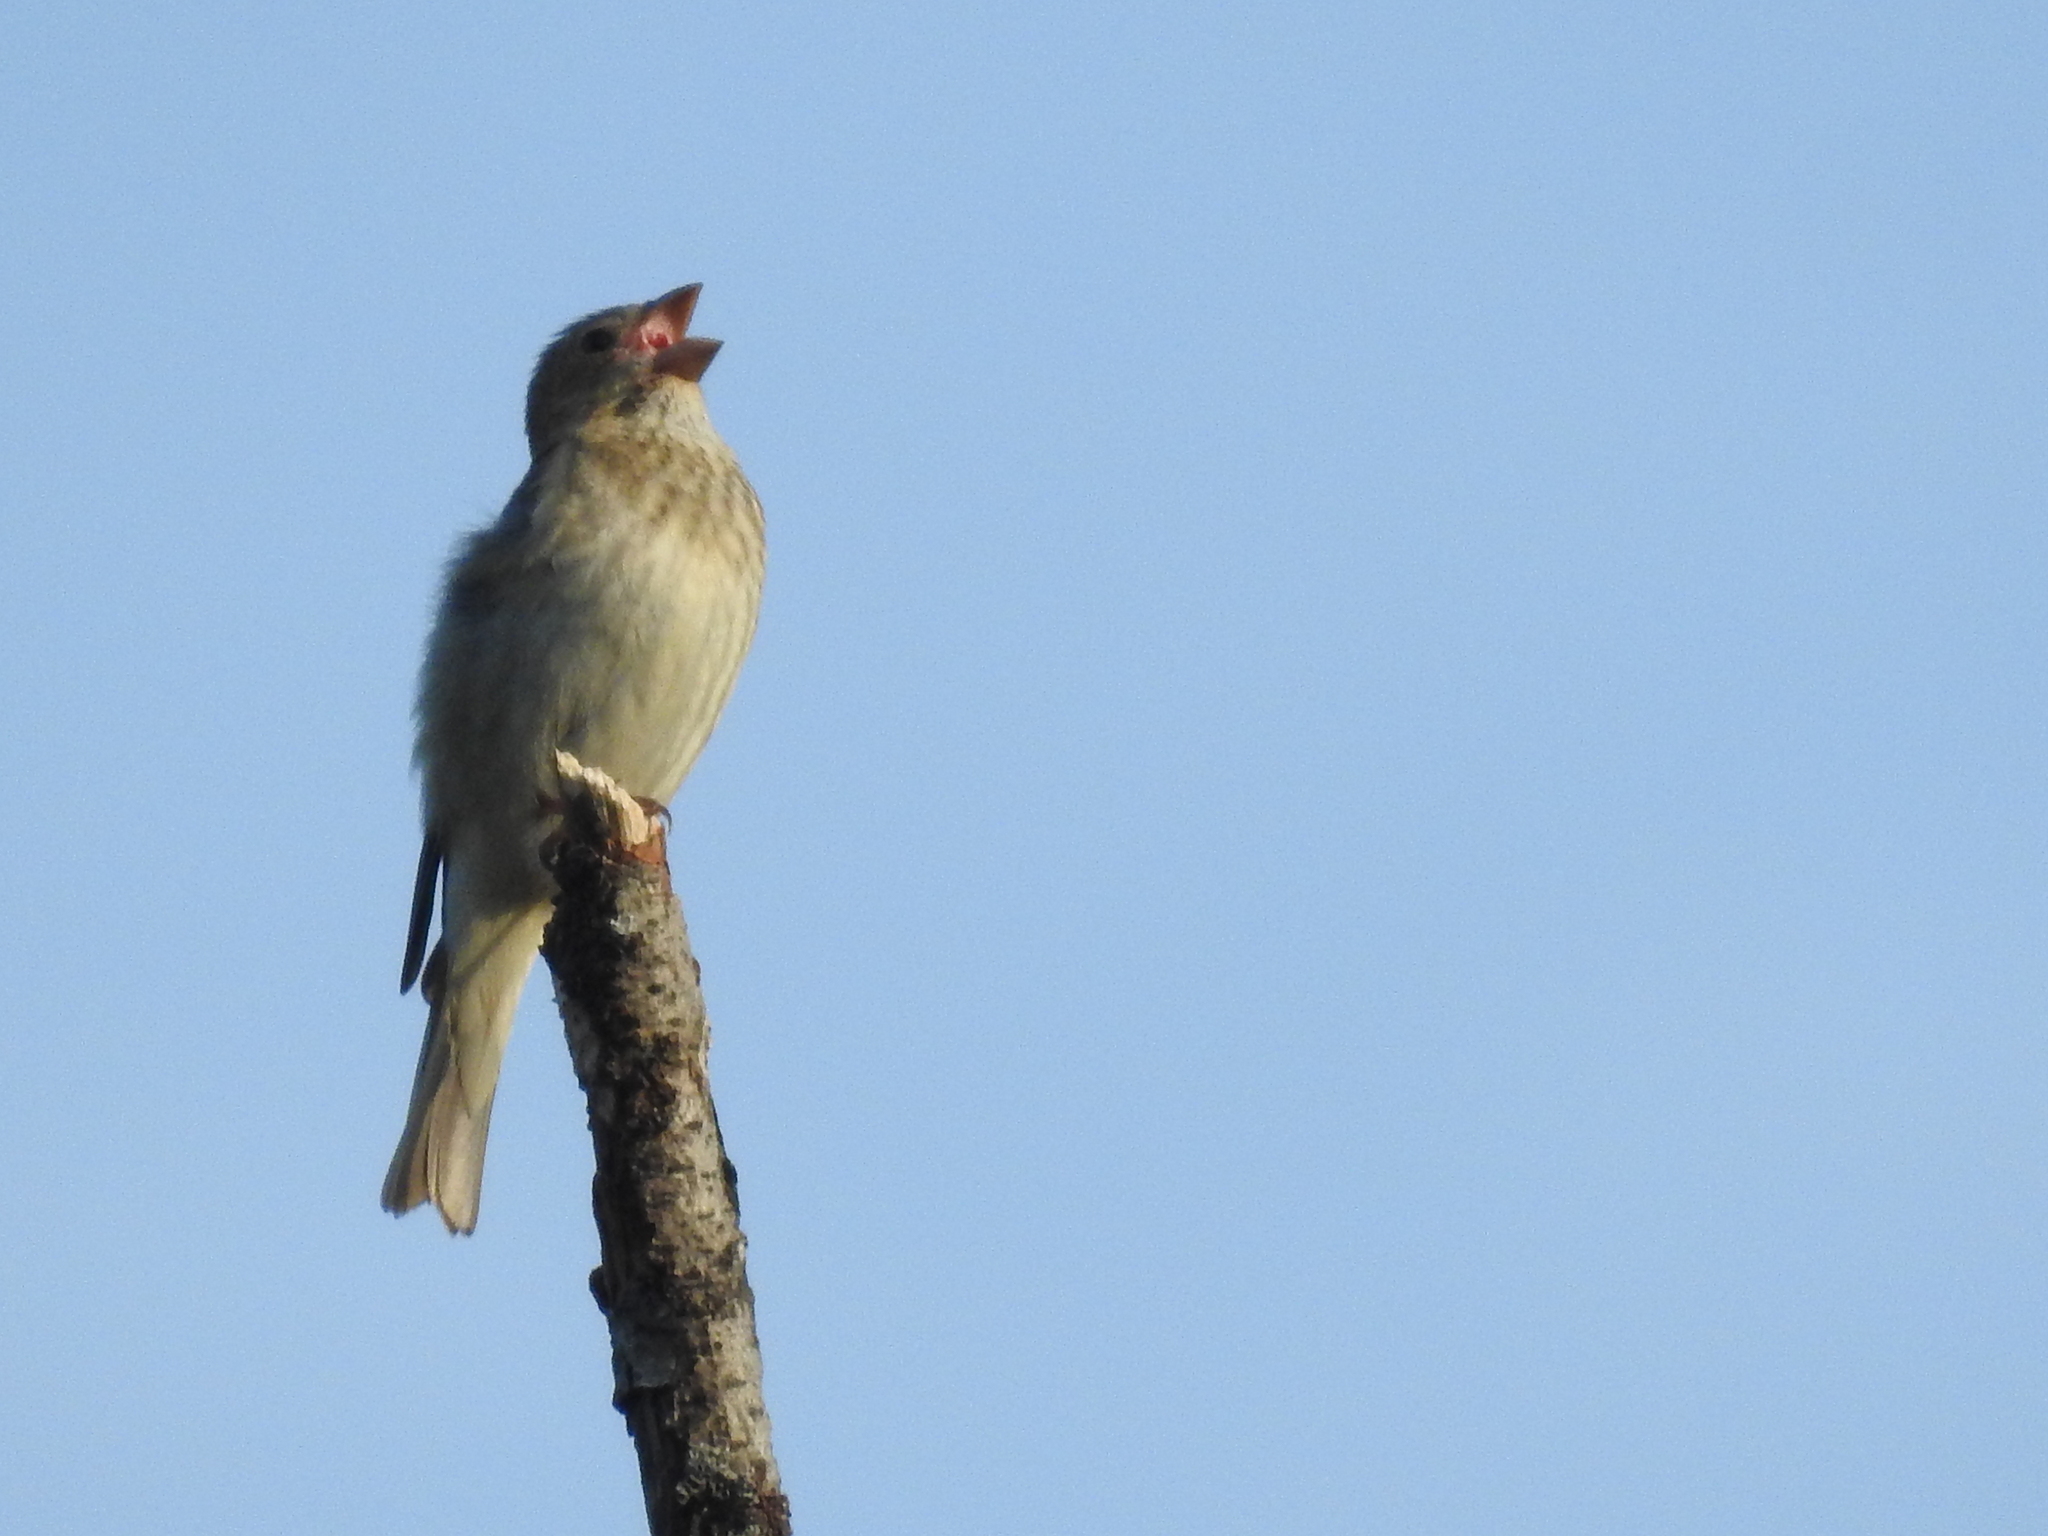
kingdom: Animalia
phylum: Chordata
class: Aves
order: Passeriformes
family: Fringillidae
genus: Carpodacus
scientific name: Carpodacus erythrinus
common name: Common rosefinch
